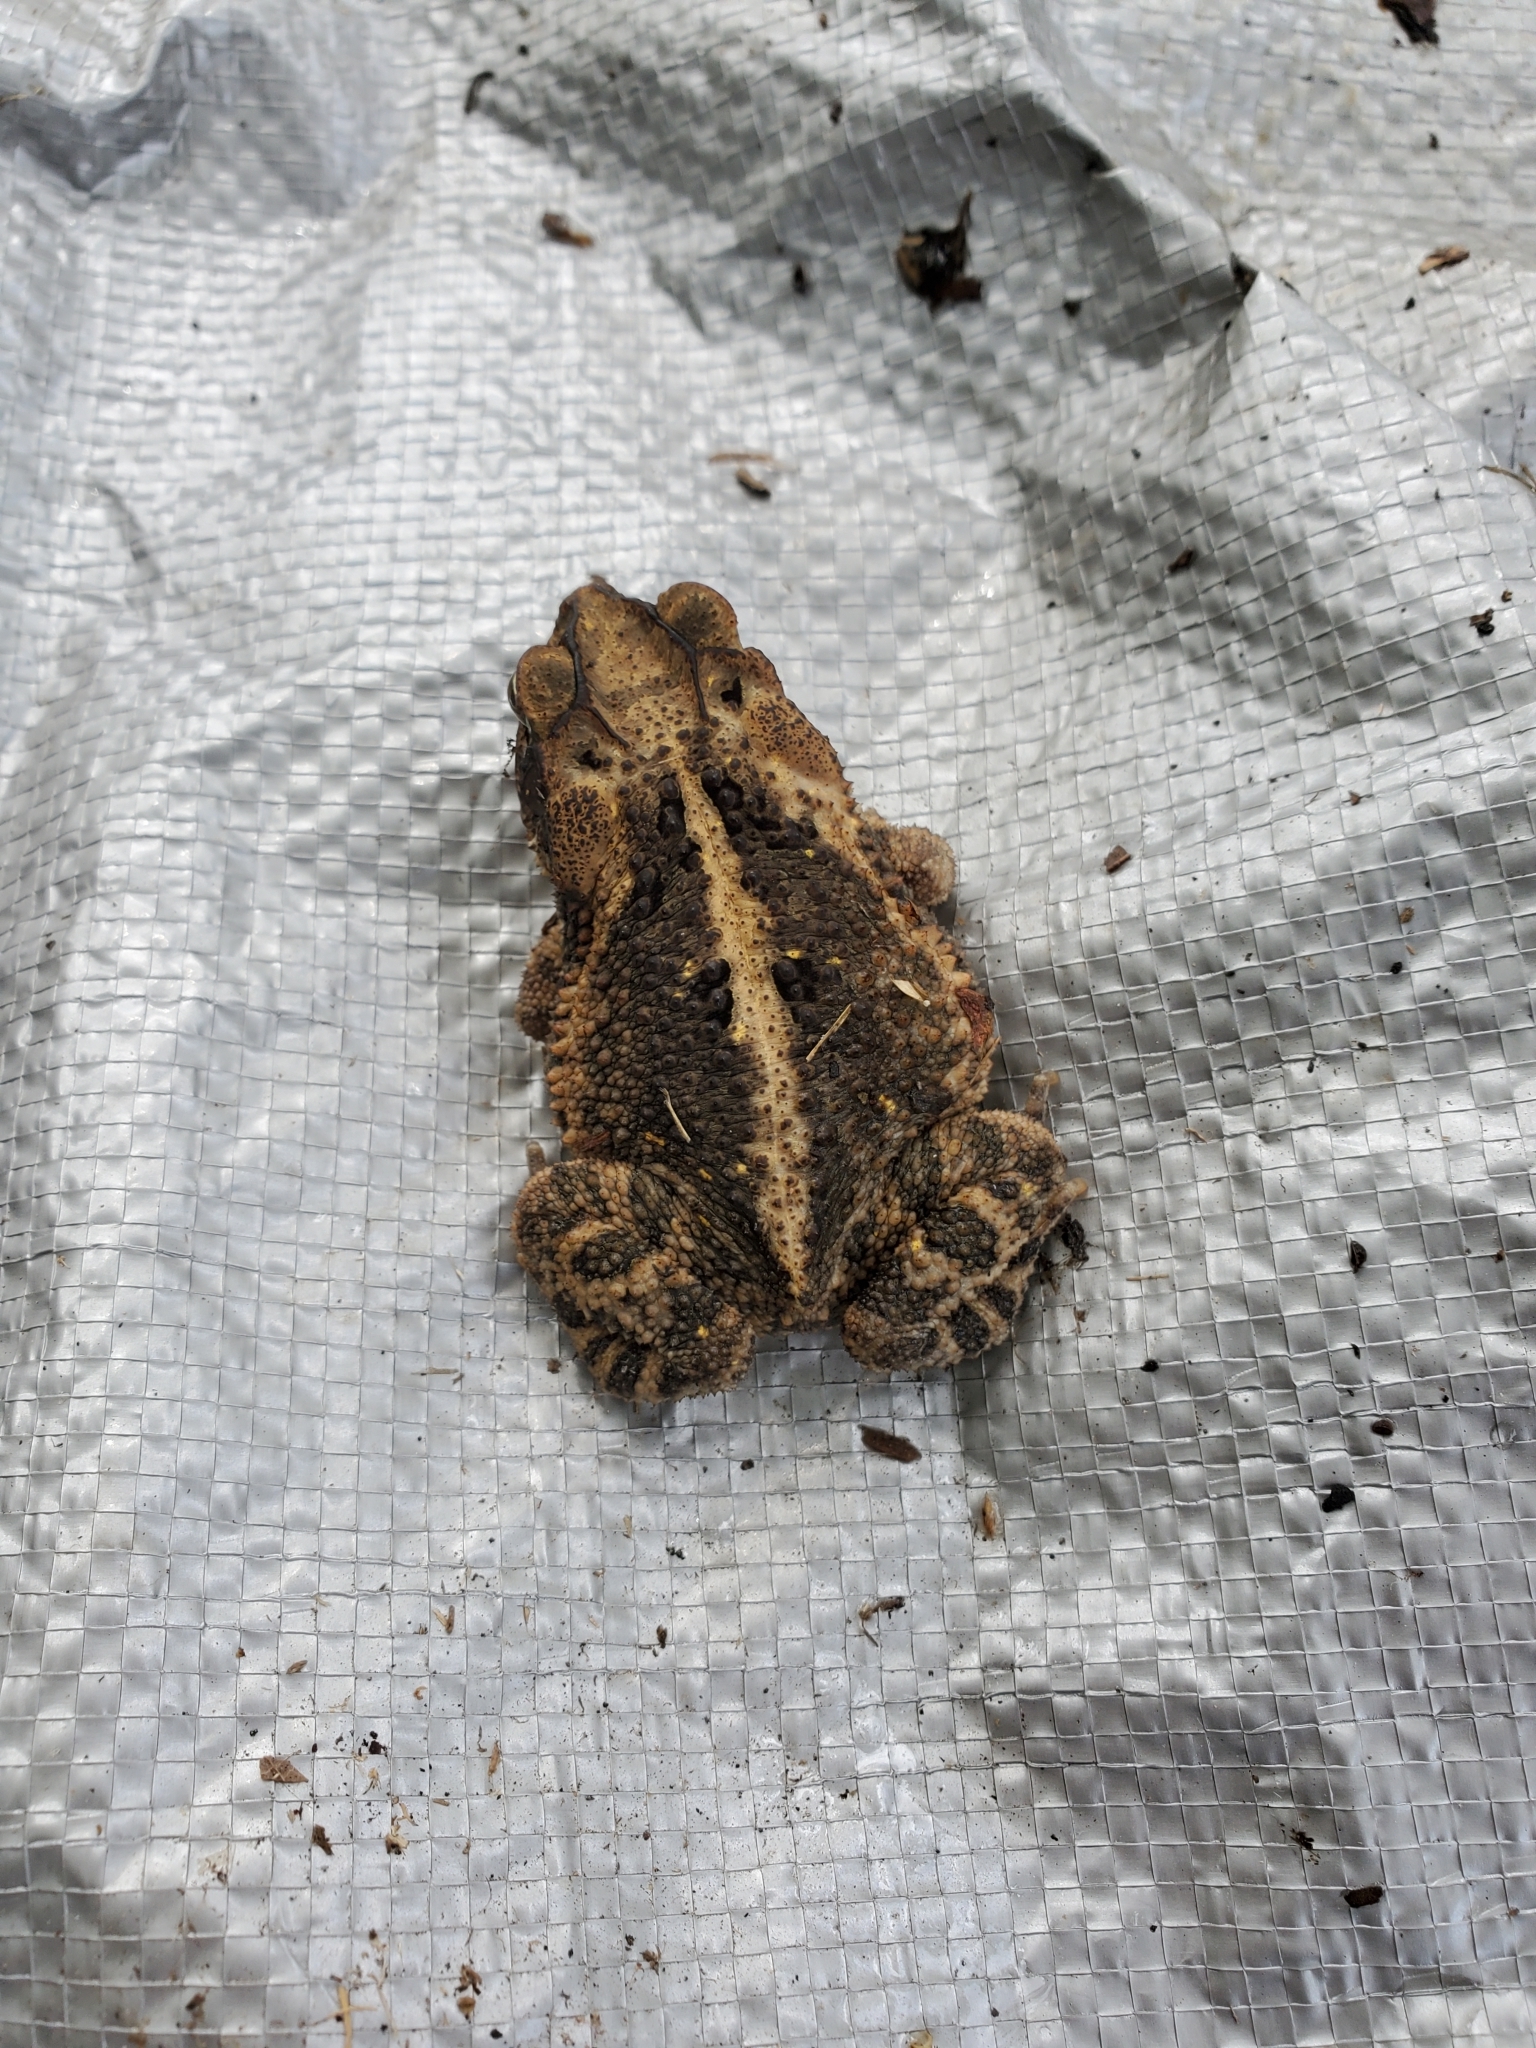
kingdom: Animalia
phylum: Chordata
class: Amphibia
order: Anura
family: Bufonidae
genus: Incilius
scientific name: Incilius nebulifer
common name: Gulf coast toad
